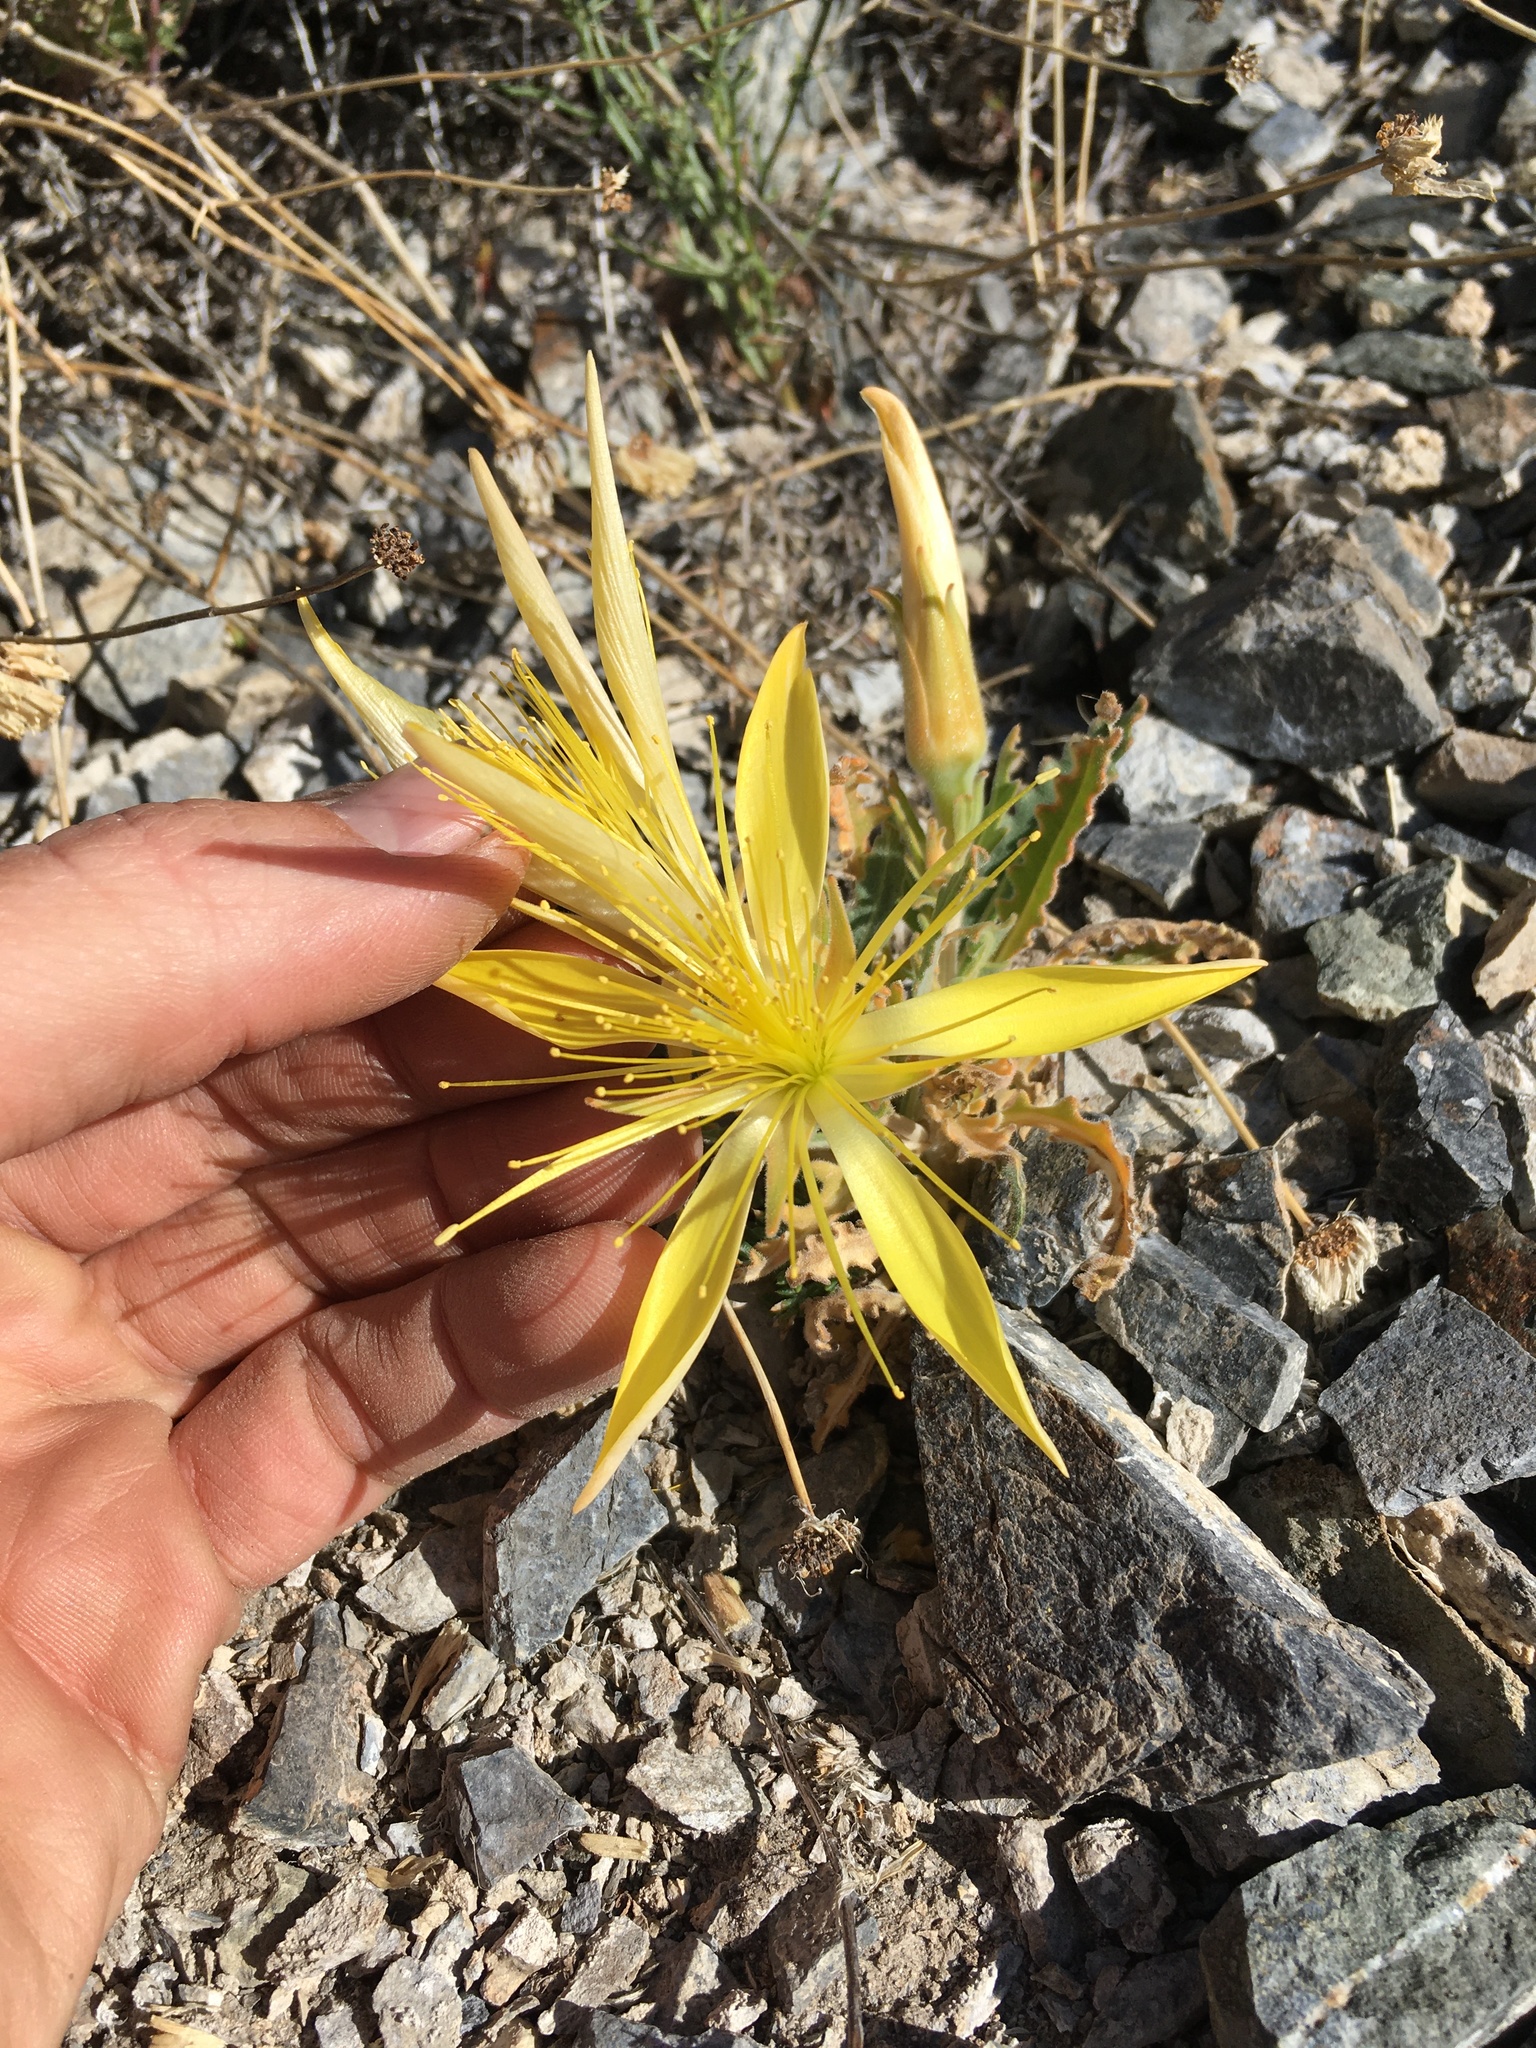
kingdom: Plantae
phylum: Tracheophyta
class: Magnoliopsida
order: Cornales
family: Loasaceae
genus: Mentzelia
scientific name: Mentzelia laevicaulis
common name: Smooth-stem blazingstar
